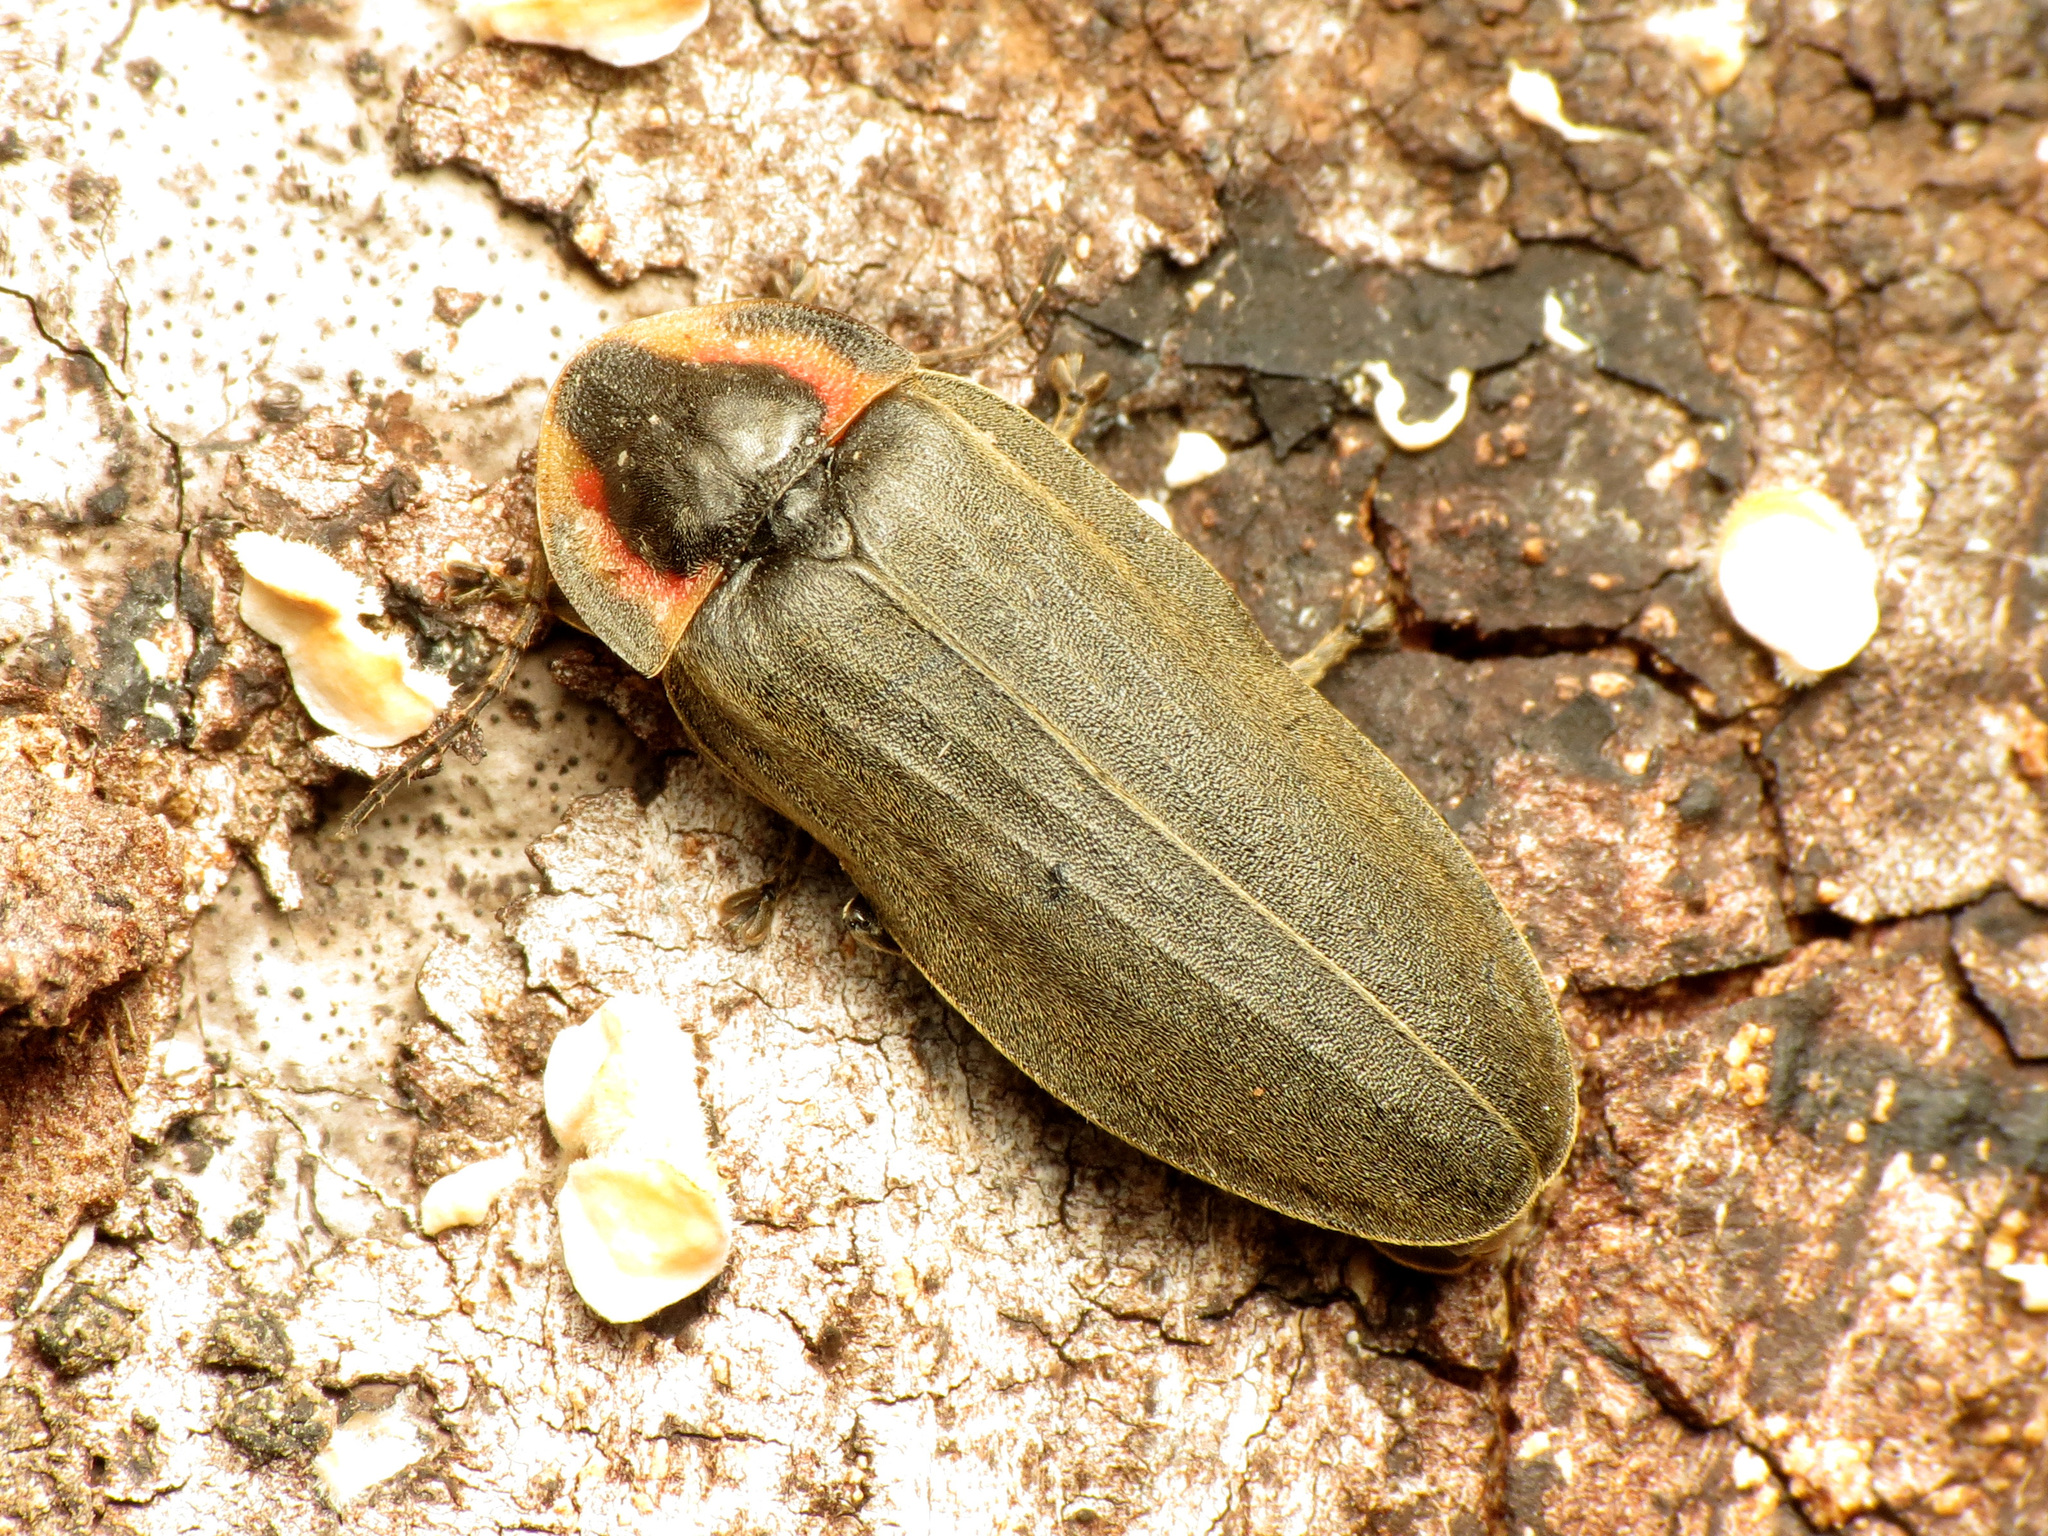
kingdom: Animalia
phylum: Arthropoda
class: Insecta
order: Coleoptera
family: Lampyridae
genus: Photinus
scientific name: Photinus corrusca
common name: Winter firefly
